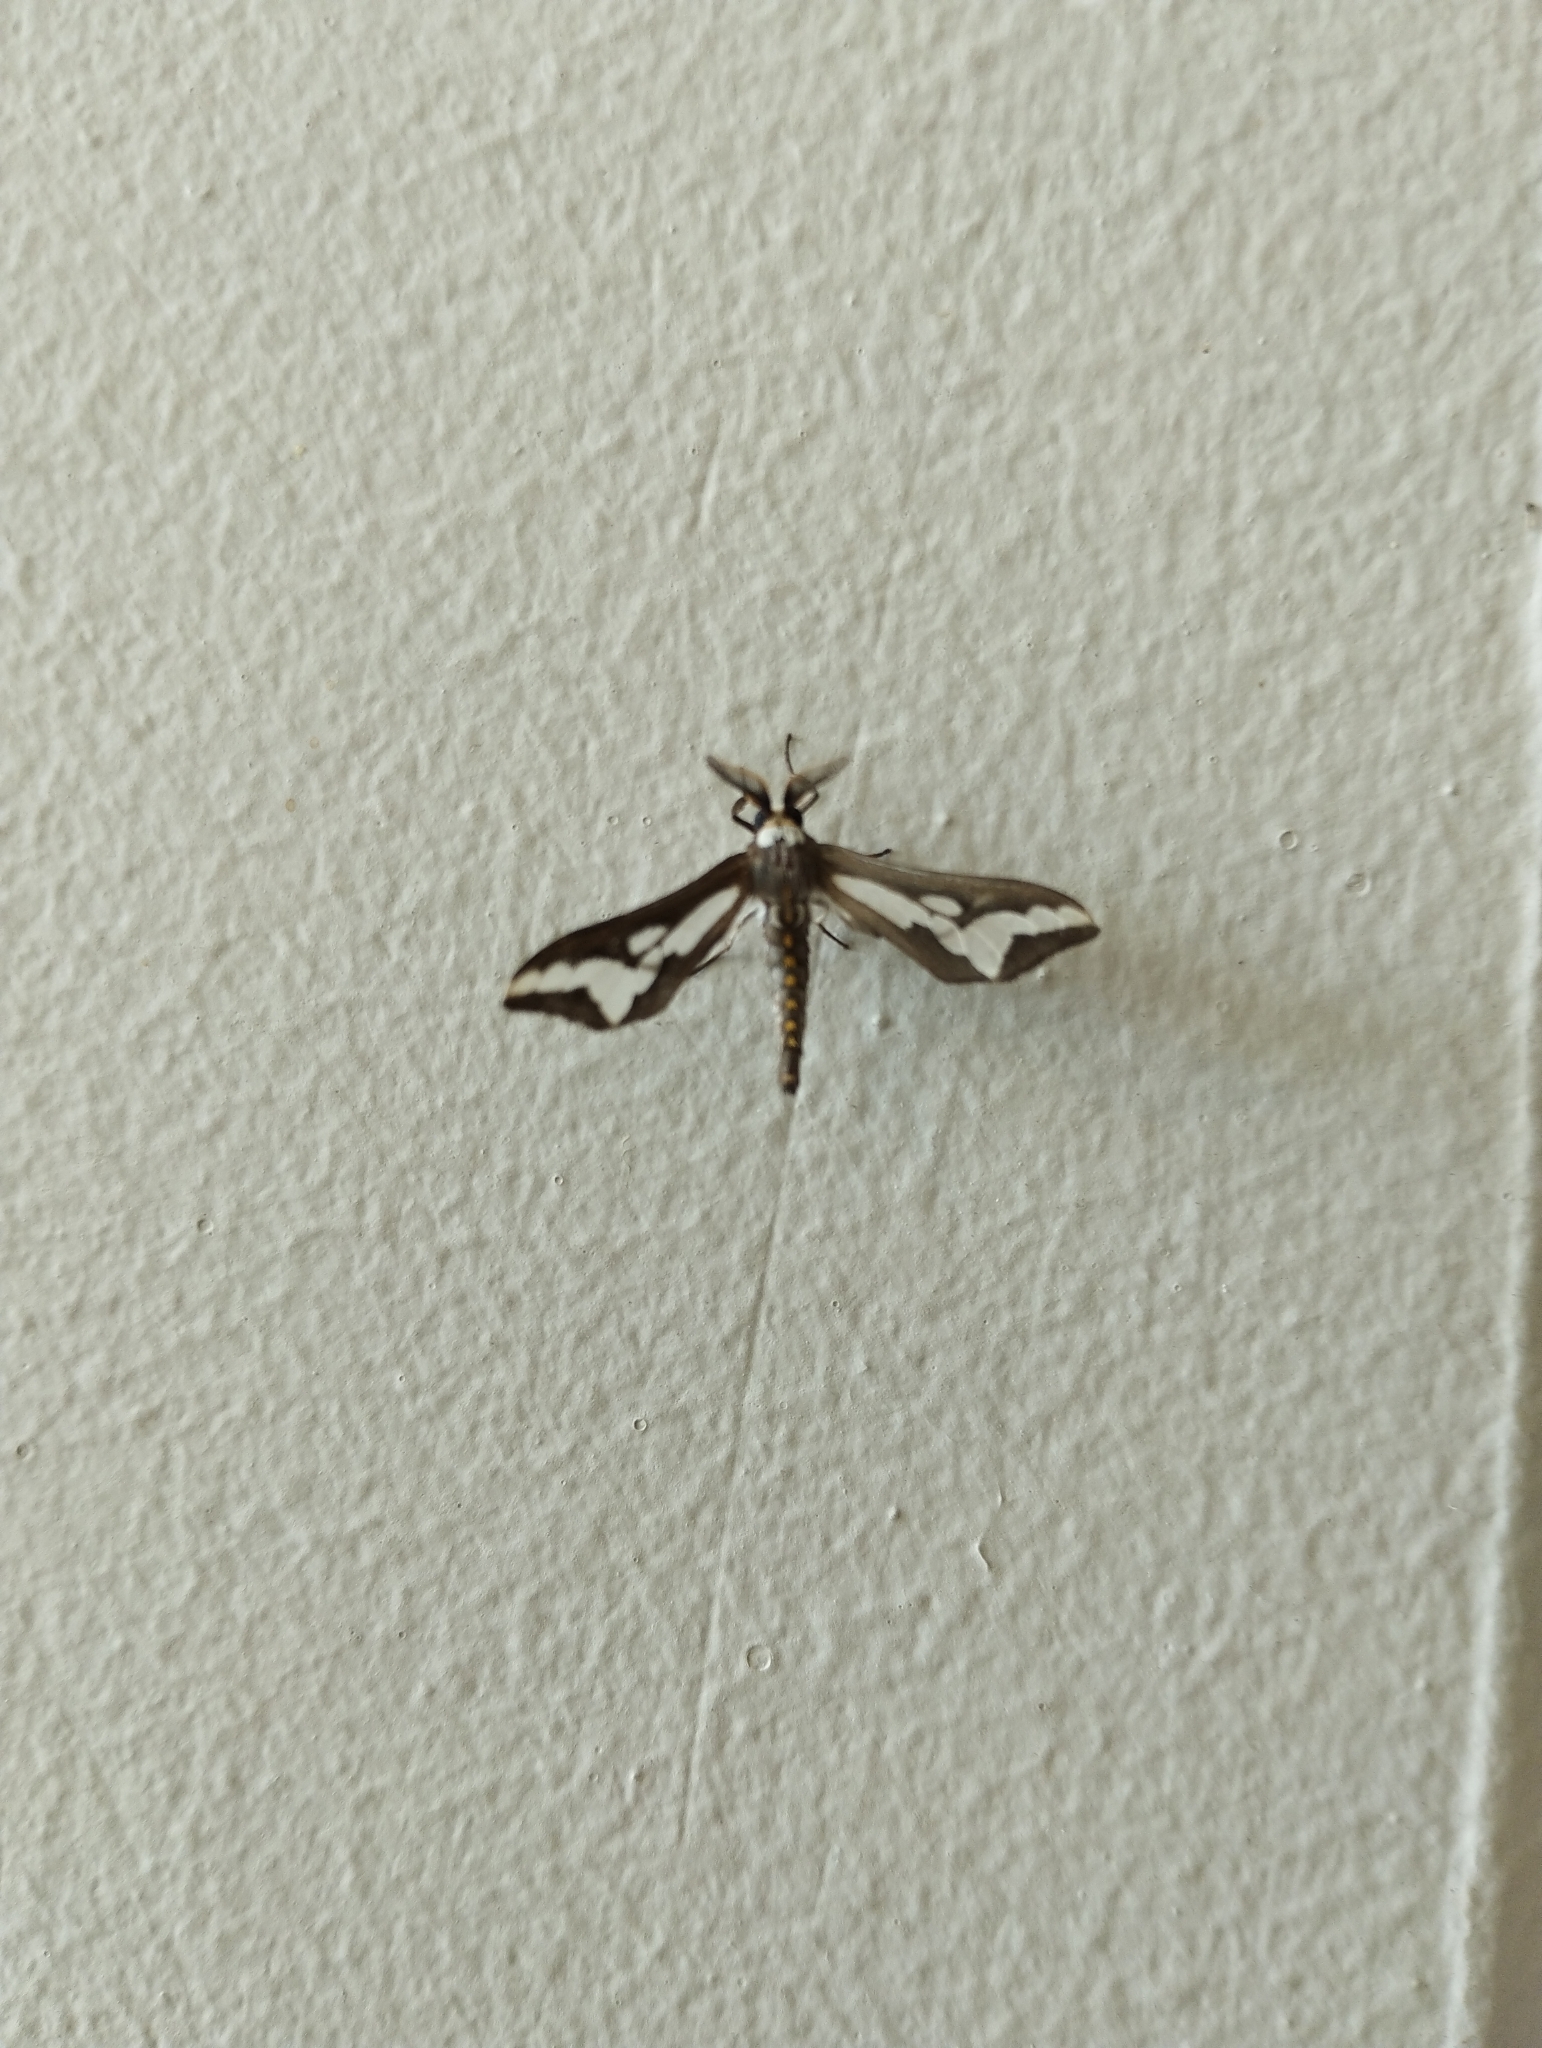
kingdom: Animalia
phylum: Arthropoda
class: Insecta
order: Lepidoptera
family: Erebidae
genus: Thyretes
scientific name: Thyretes caffra
